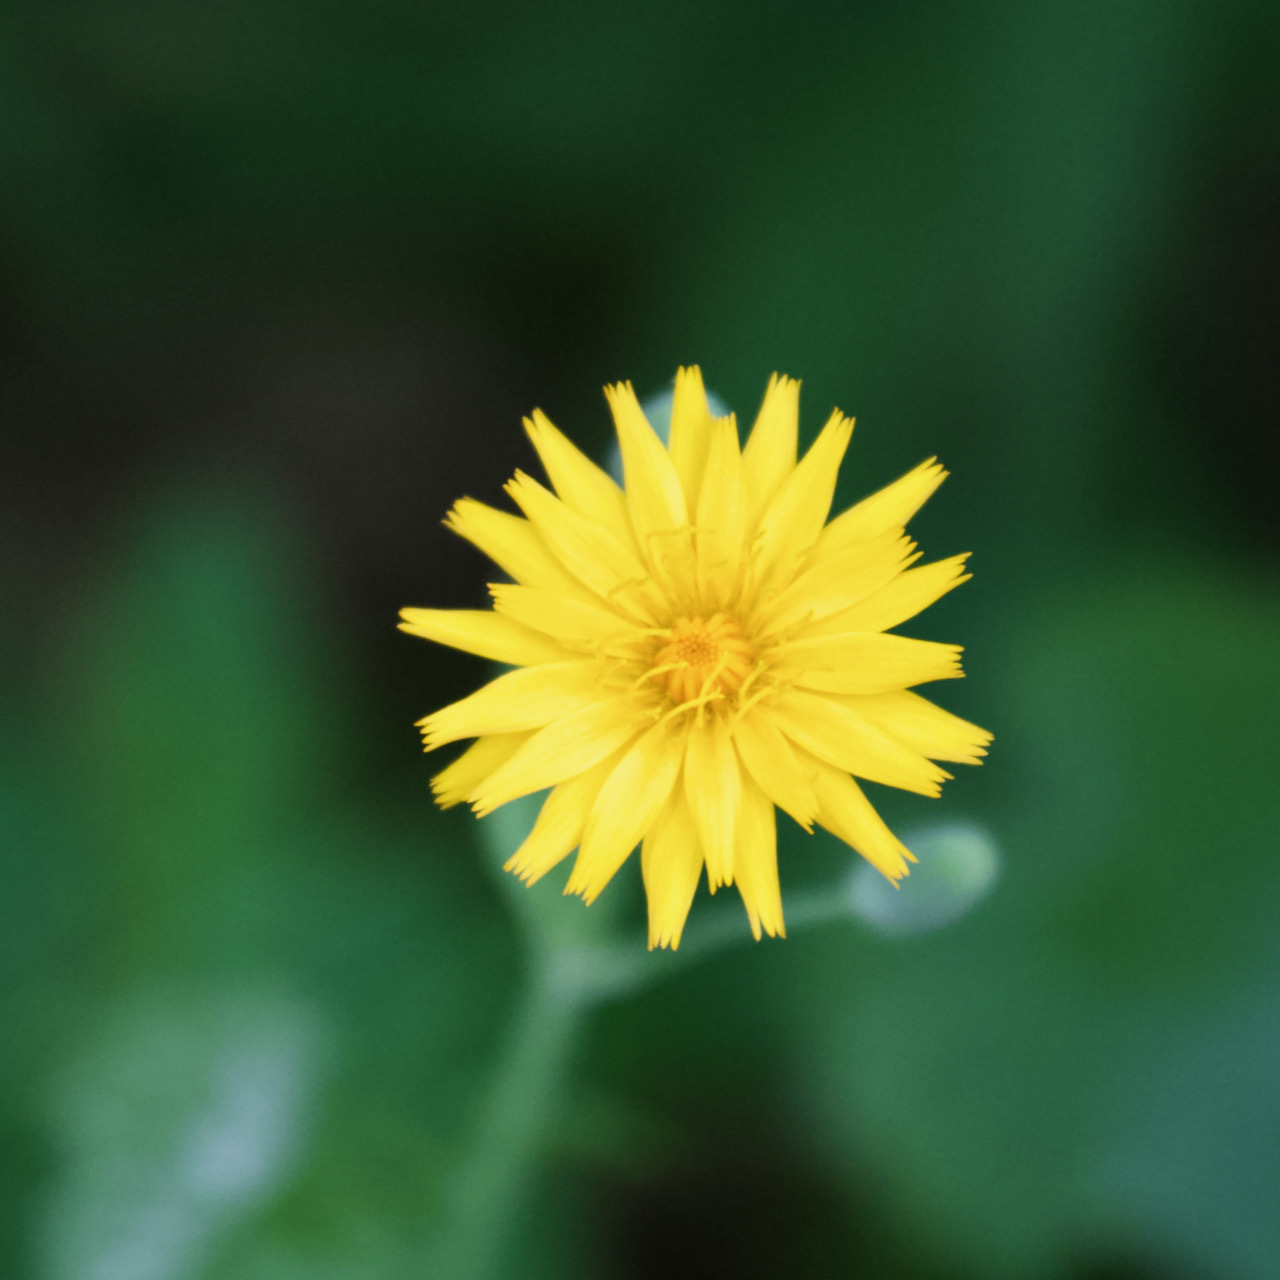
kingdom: Plantae
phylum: Tracheophyta
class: Magnoliopsida
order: Asterales
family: Asteraceae
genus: Krigia
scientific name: Krigia biflora
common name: Orange dwarf-dandelion
